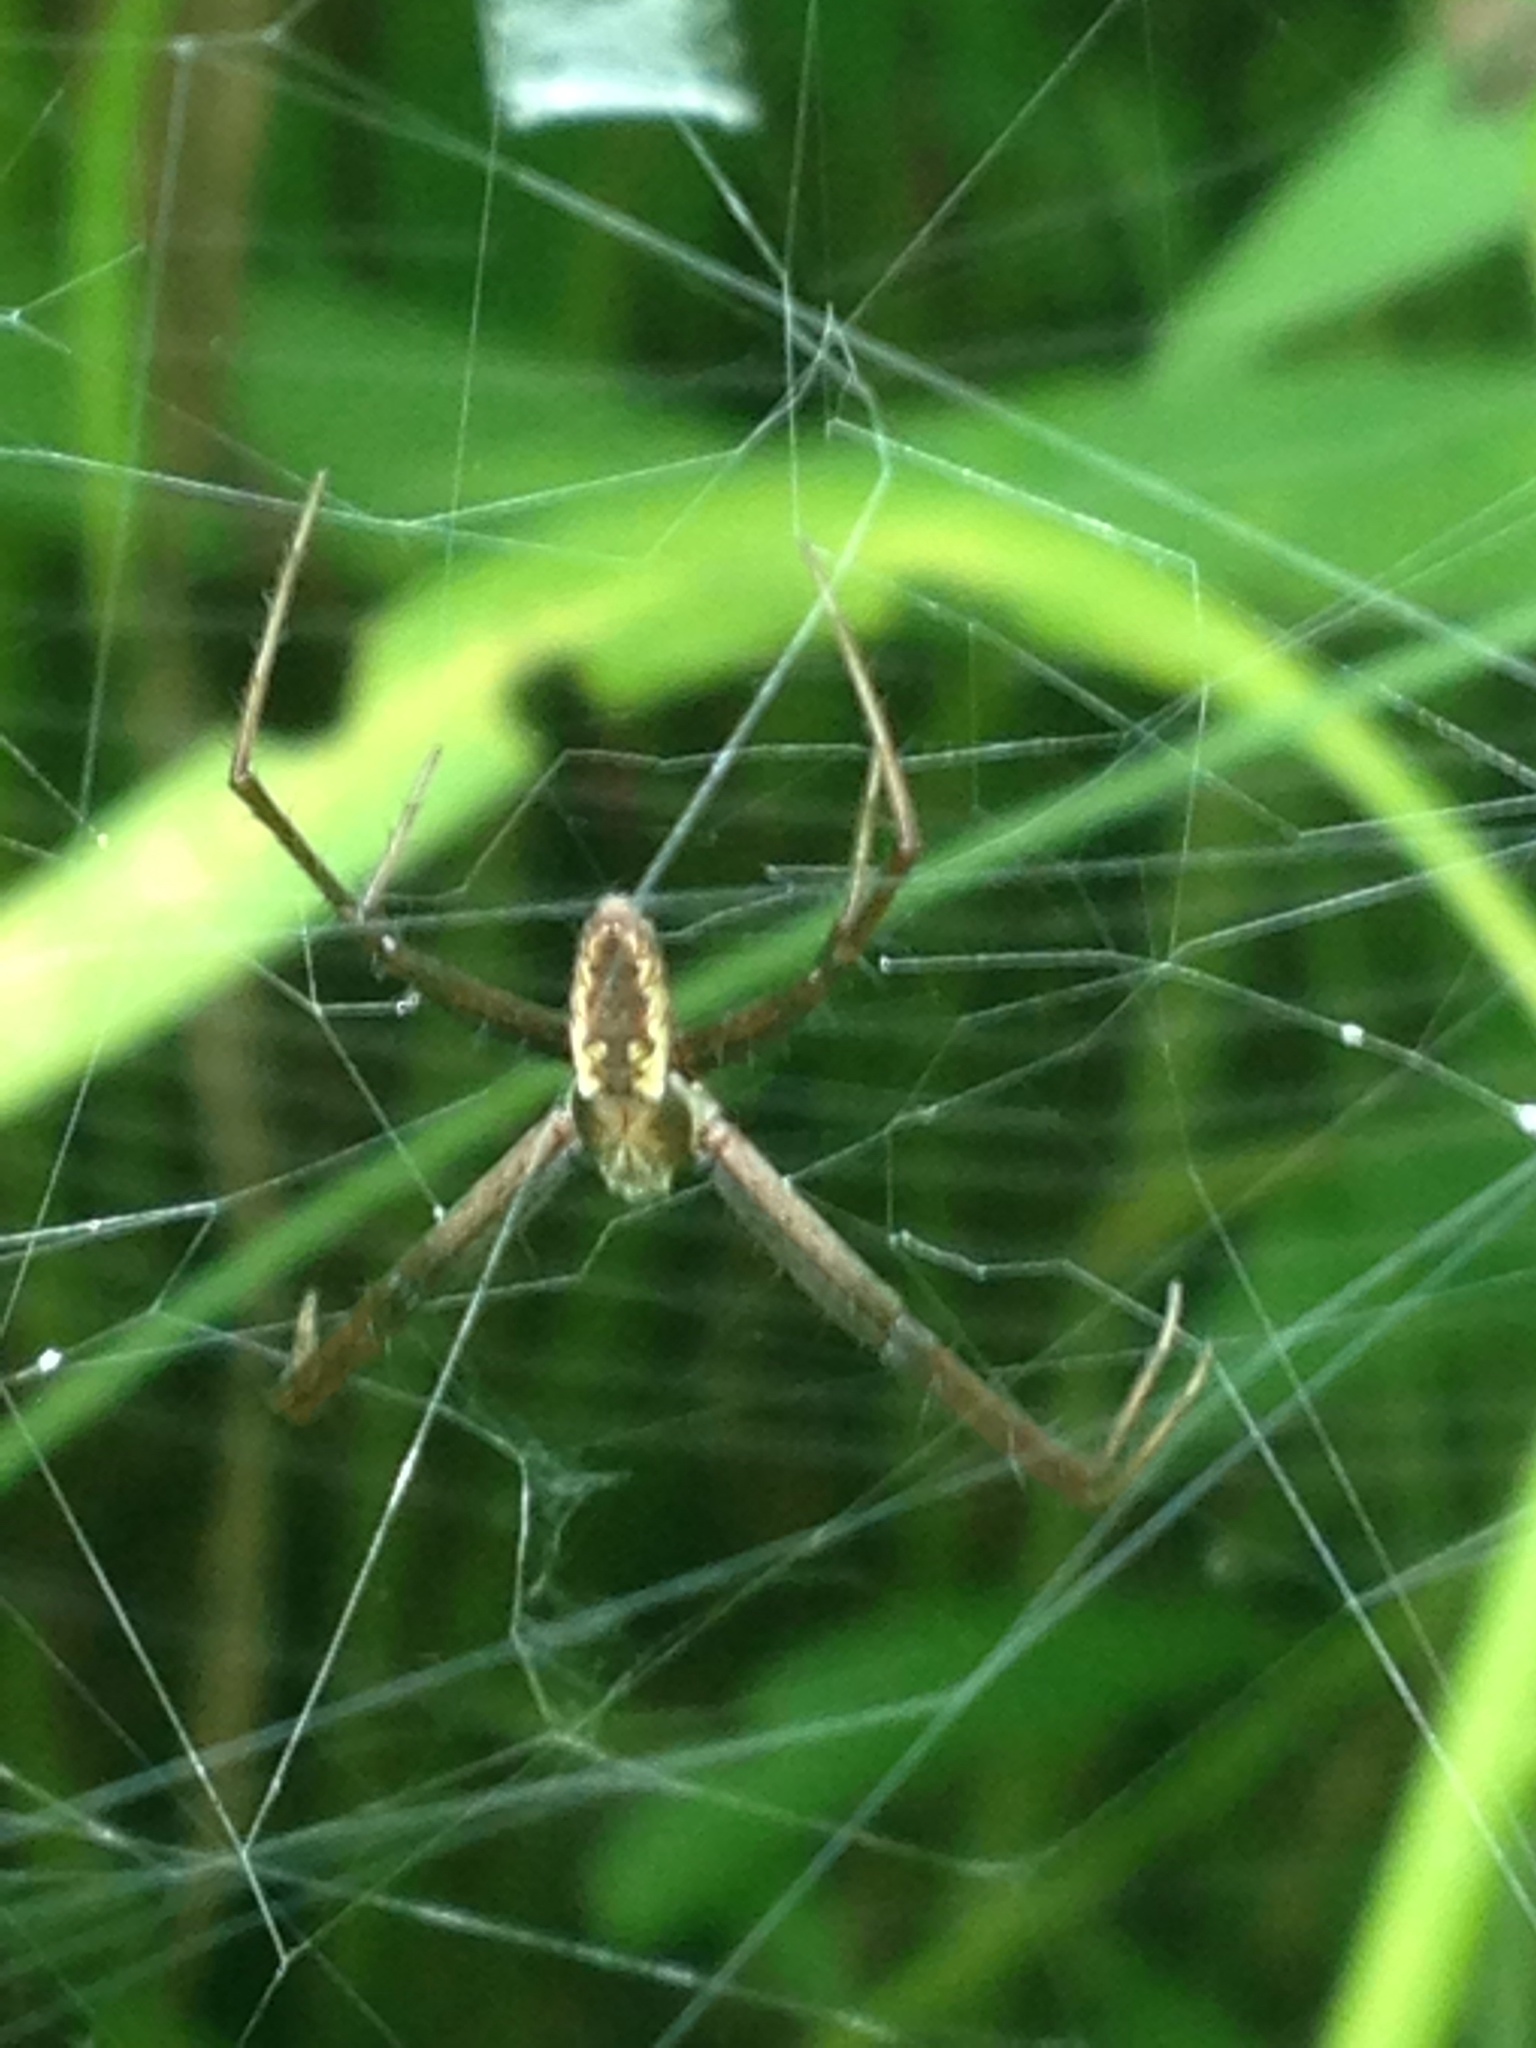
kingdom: Animalia
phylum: Arthropoda
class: Arachnida
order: Araneae
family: Araneidae
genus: Argiope
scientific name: Argiope aurantia
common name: Orb weavers
